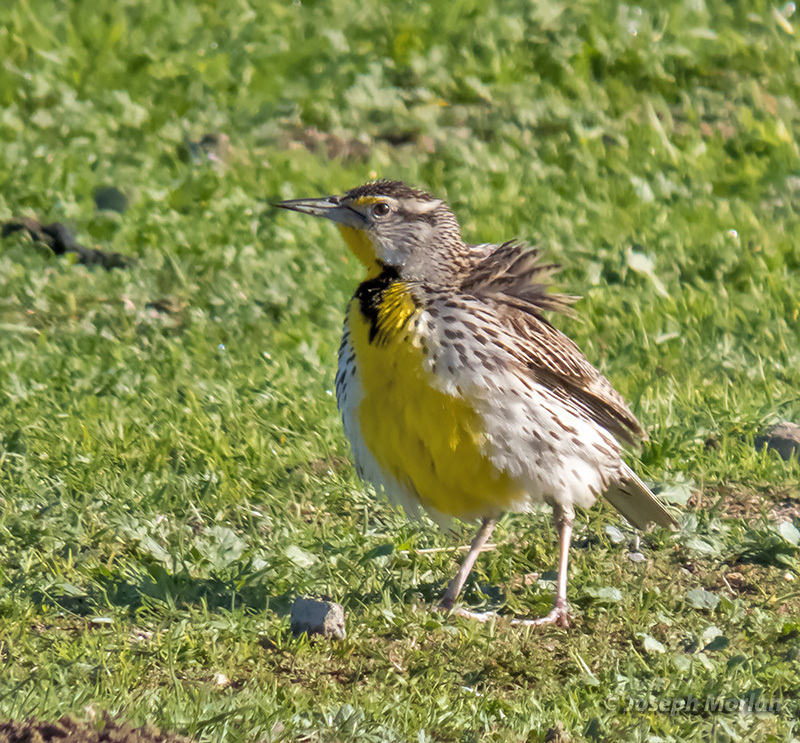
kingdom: Animalia
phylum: Chordata
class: Aves
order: Passeriformes
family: Icteridae
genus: Sturnella
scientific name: Sturnella neglecta
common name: Western meadowlark
